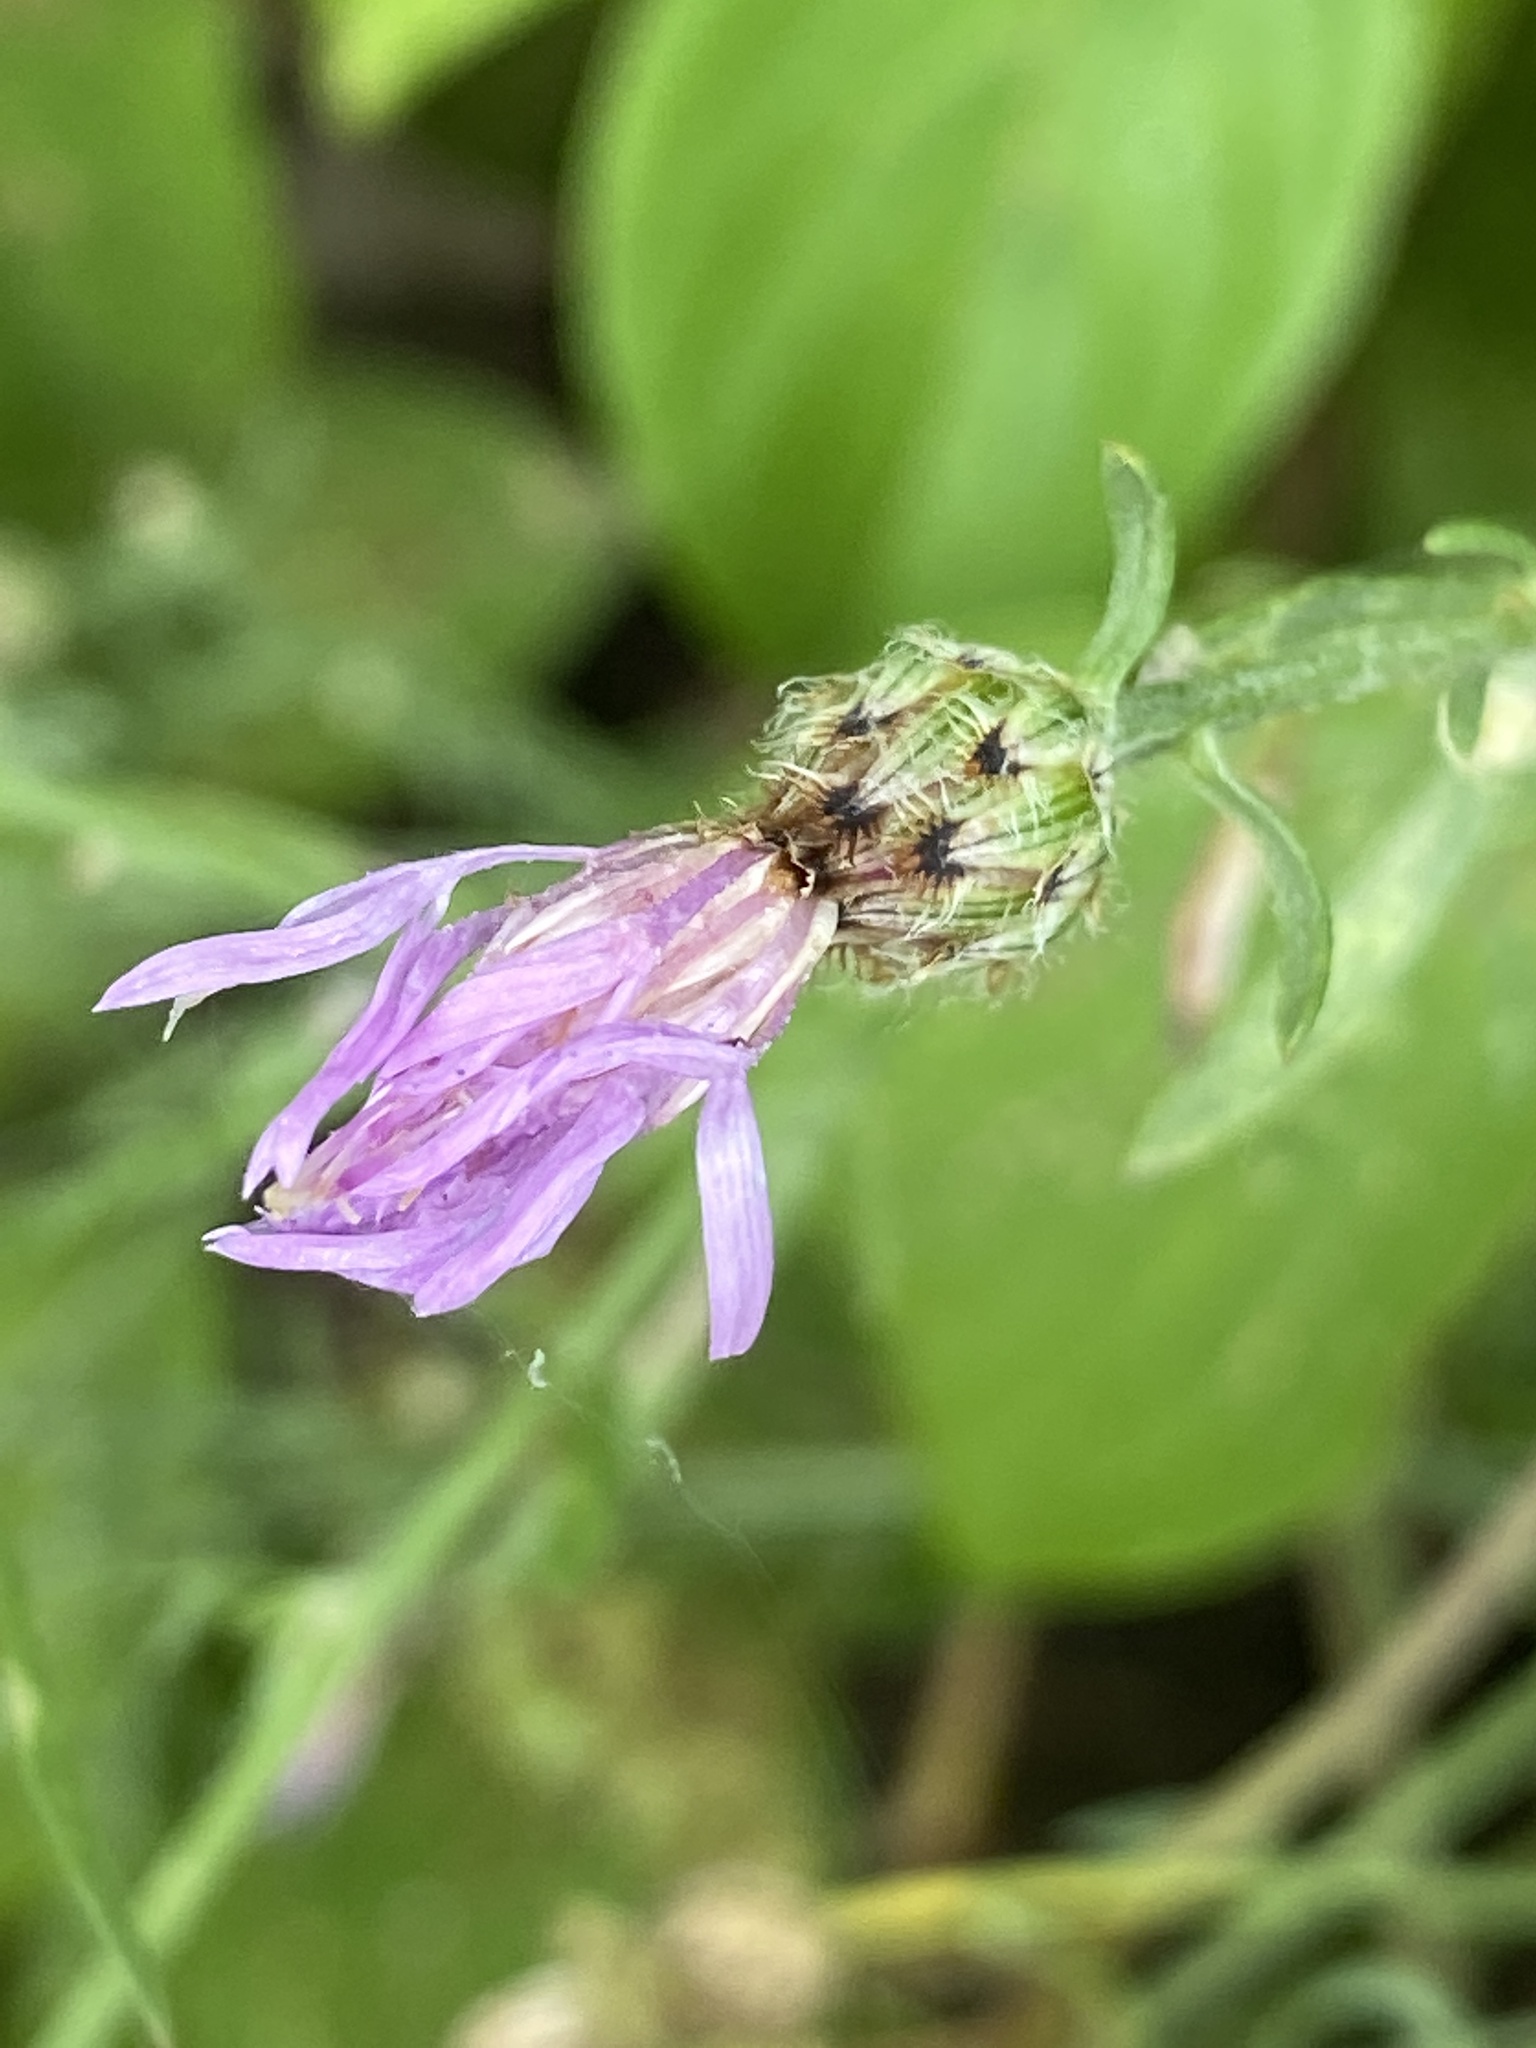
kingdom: Plantae
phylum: Tracheophyta
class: Magnoliopsida
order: Asterales
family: Asteraceae
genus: Centaurea
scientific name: Centaurea stoebe
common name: Spotted knapweed
